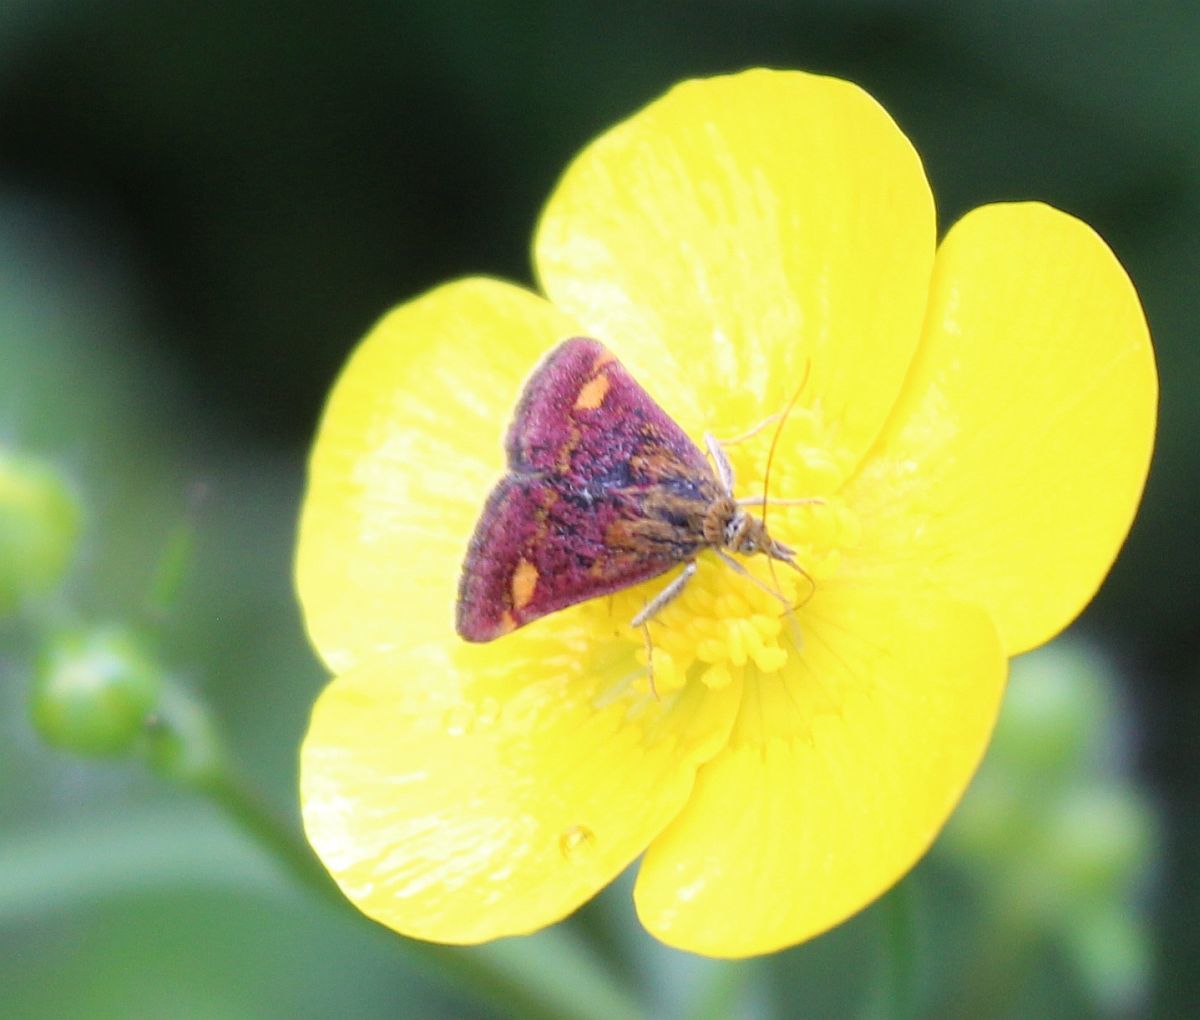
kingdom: Animalia
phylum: Arthropoda
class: Insecta
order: Lepidoptera
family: Crambidae
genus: Pyrausta
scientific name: Pyrausta aurata
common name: Small purple & gold
